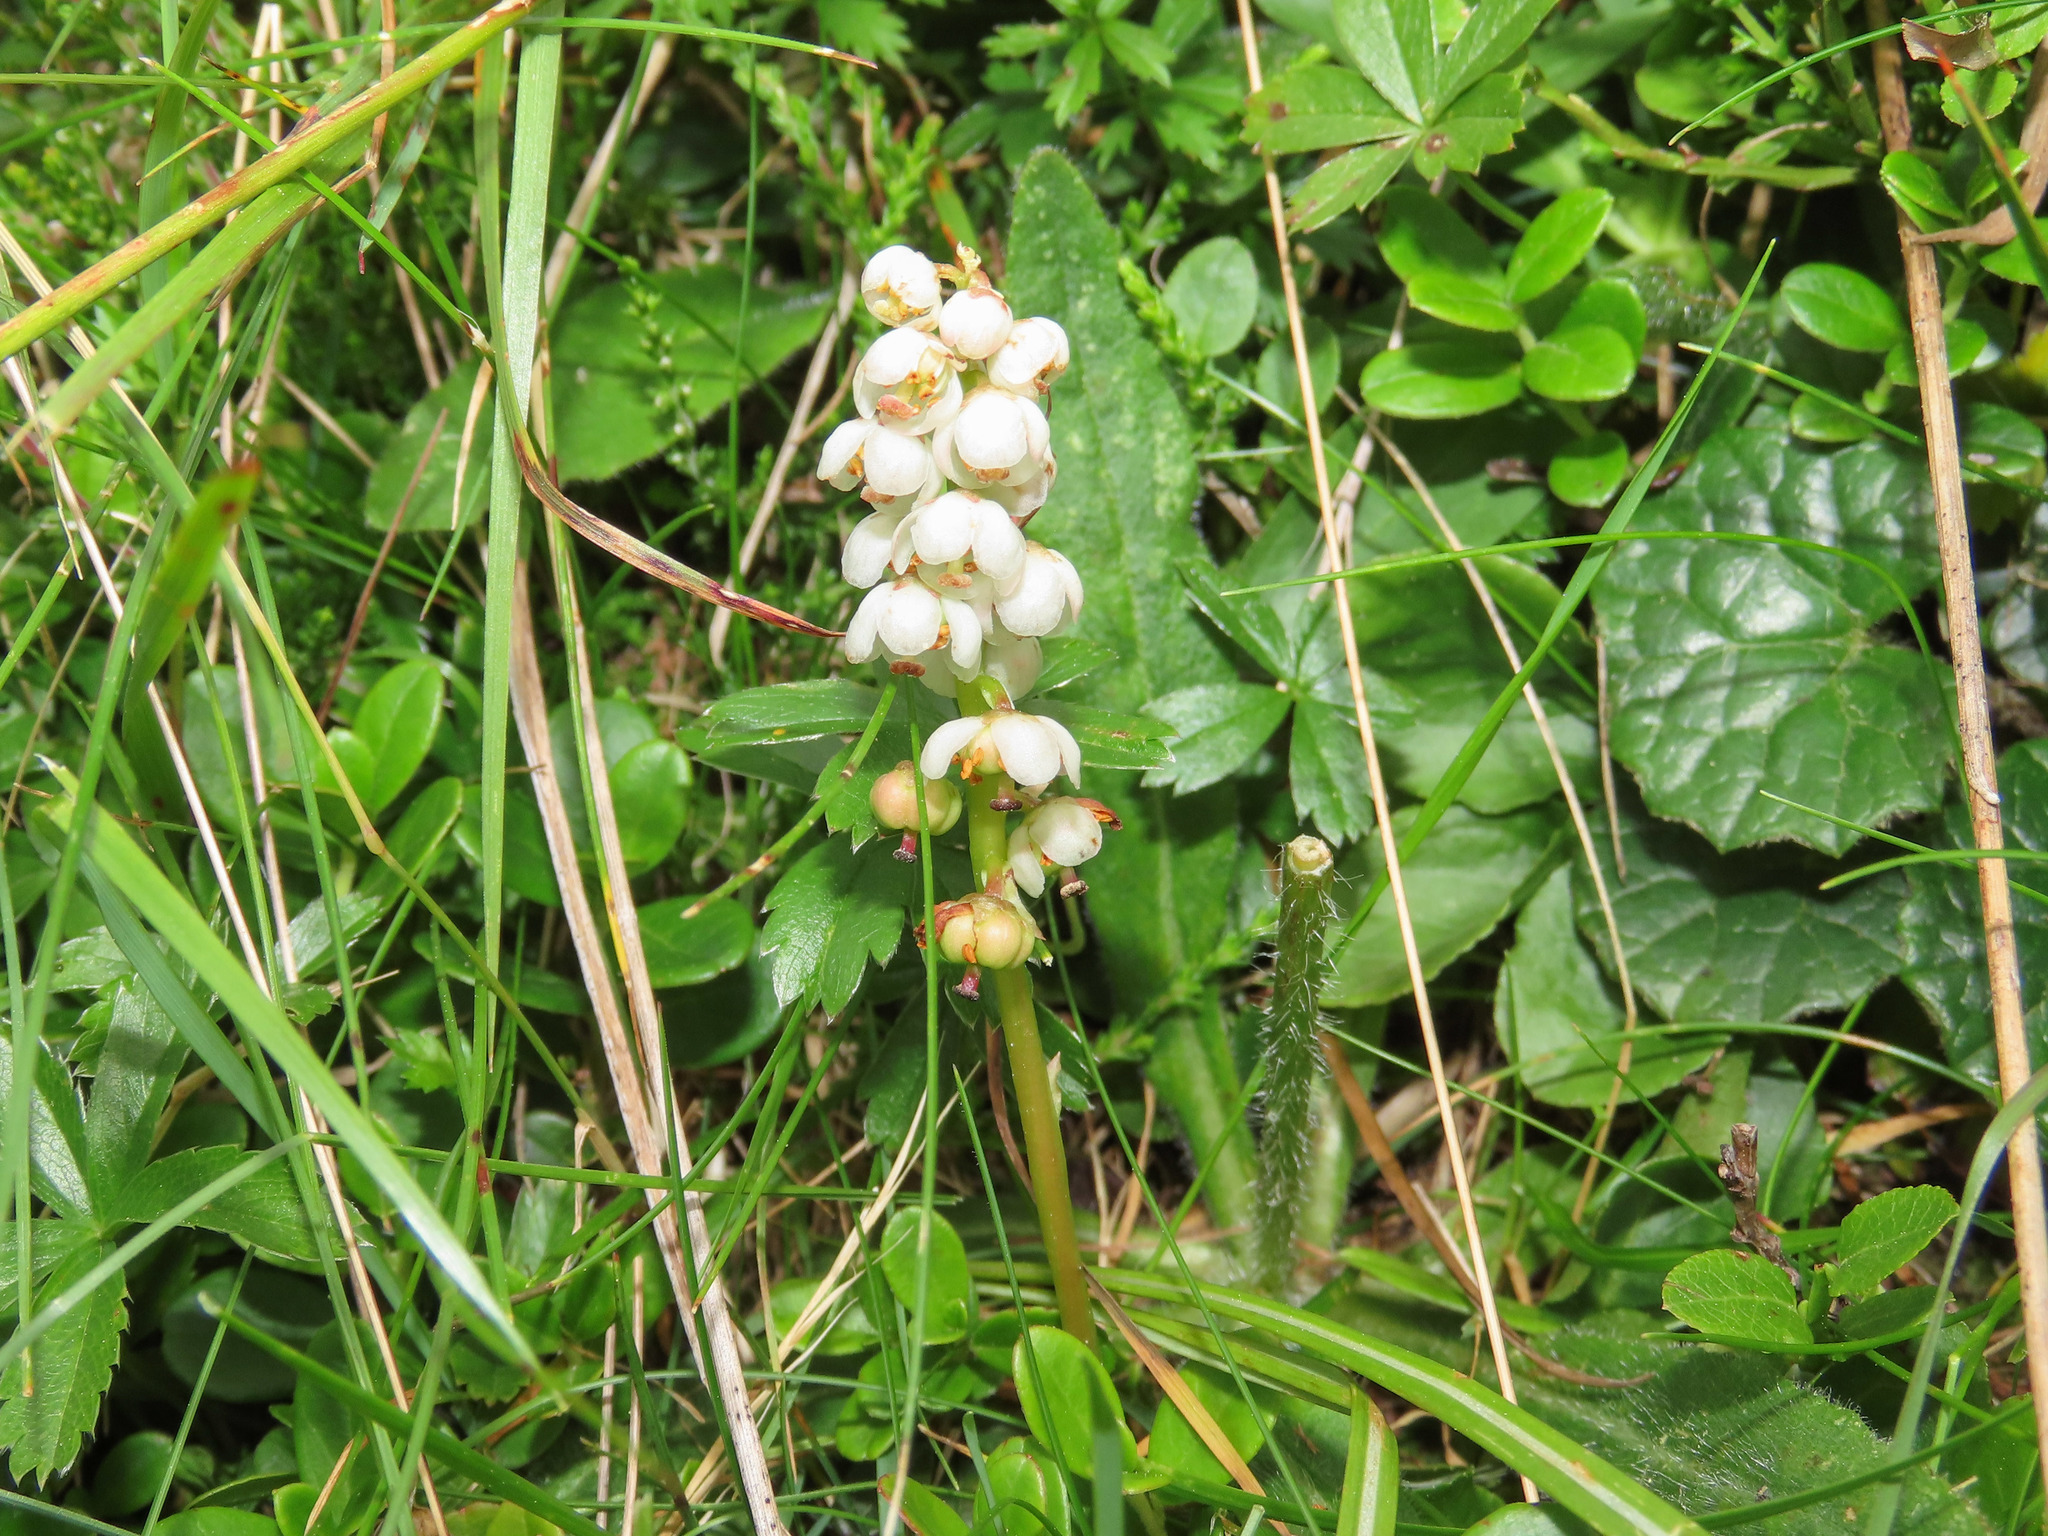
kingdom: Plantae
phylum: Tracheophyta
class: Magnoliopsida
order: Ericales
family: Ericaceae
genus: Pyrola
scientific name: Pyrola minor
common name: Common wintergreen
